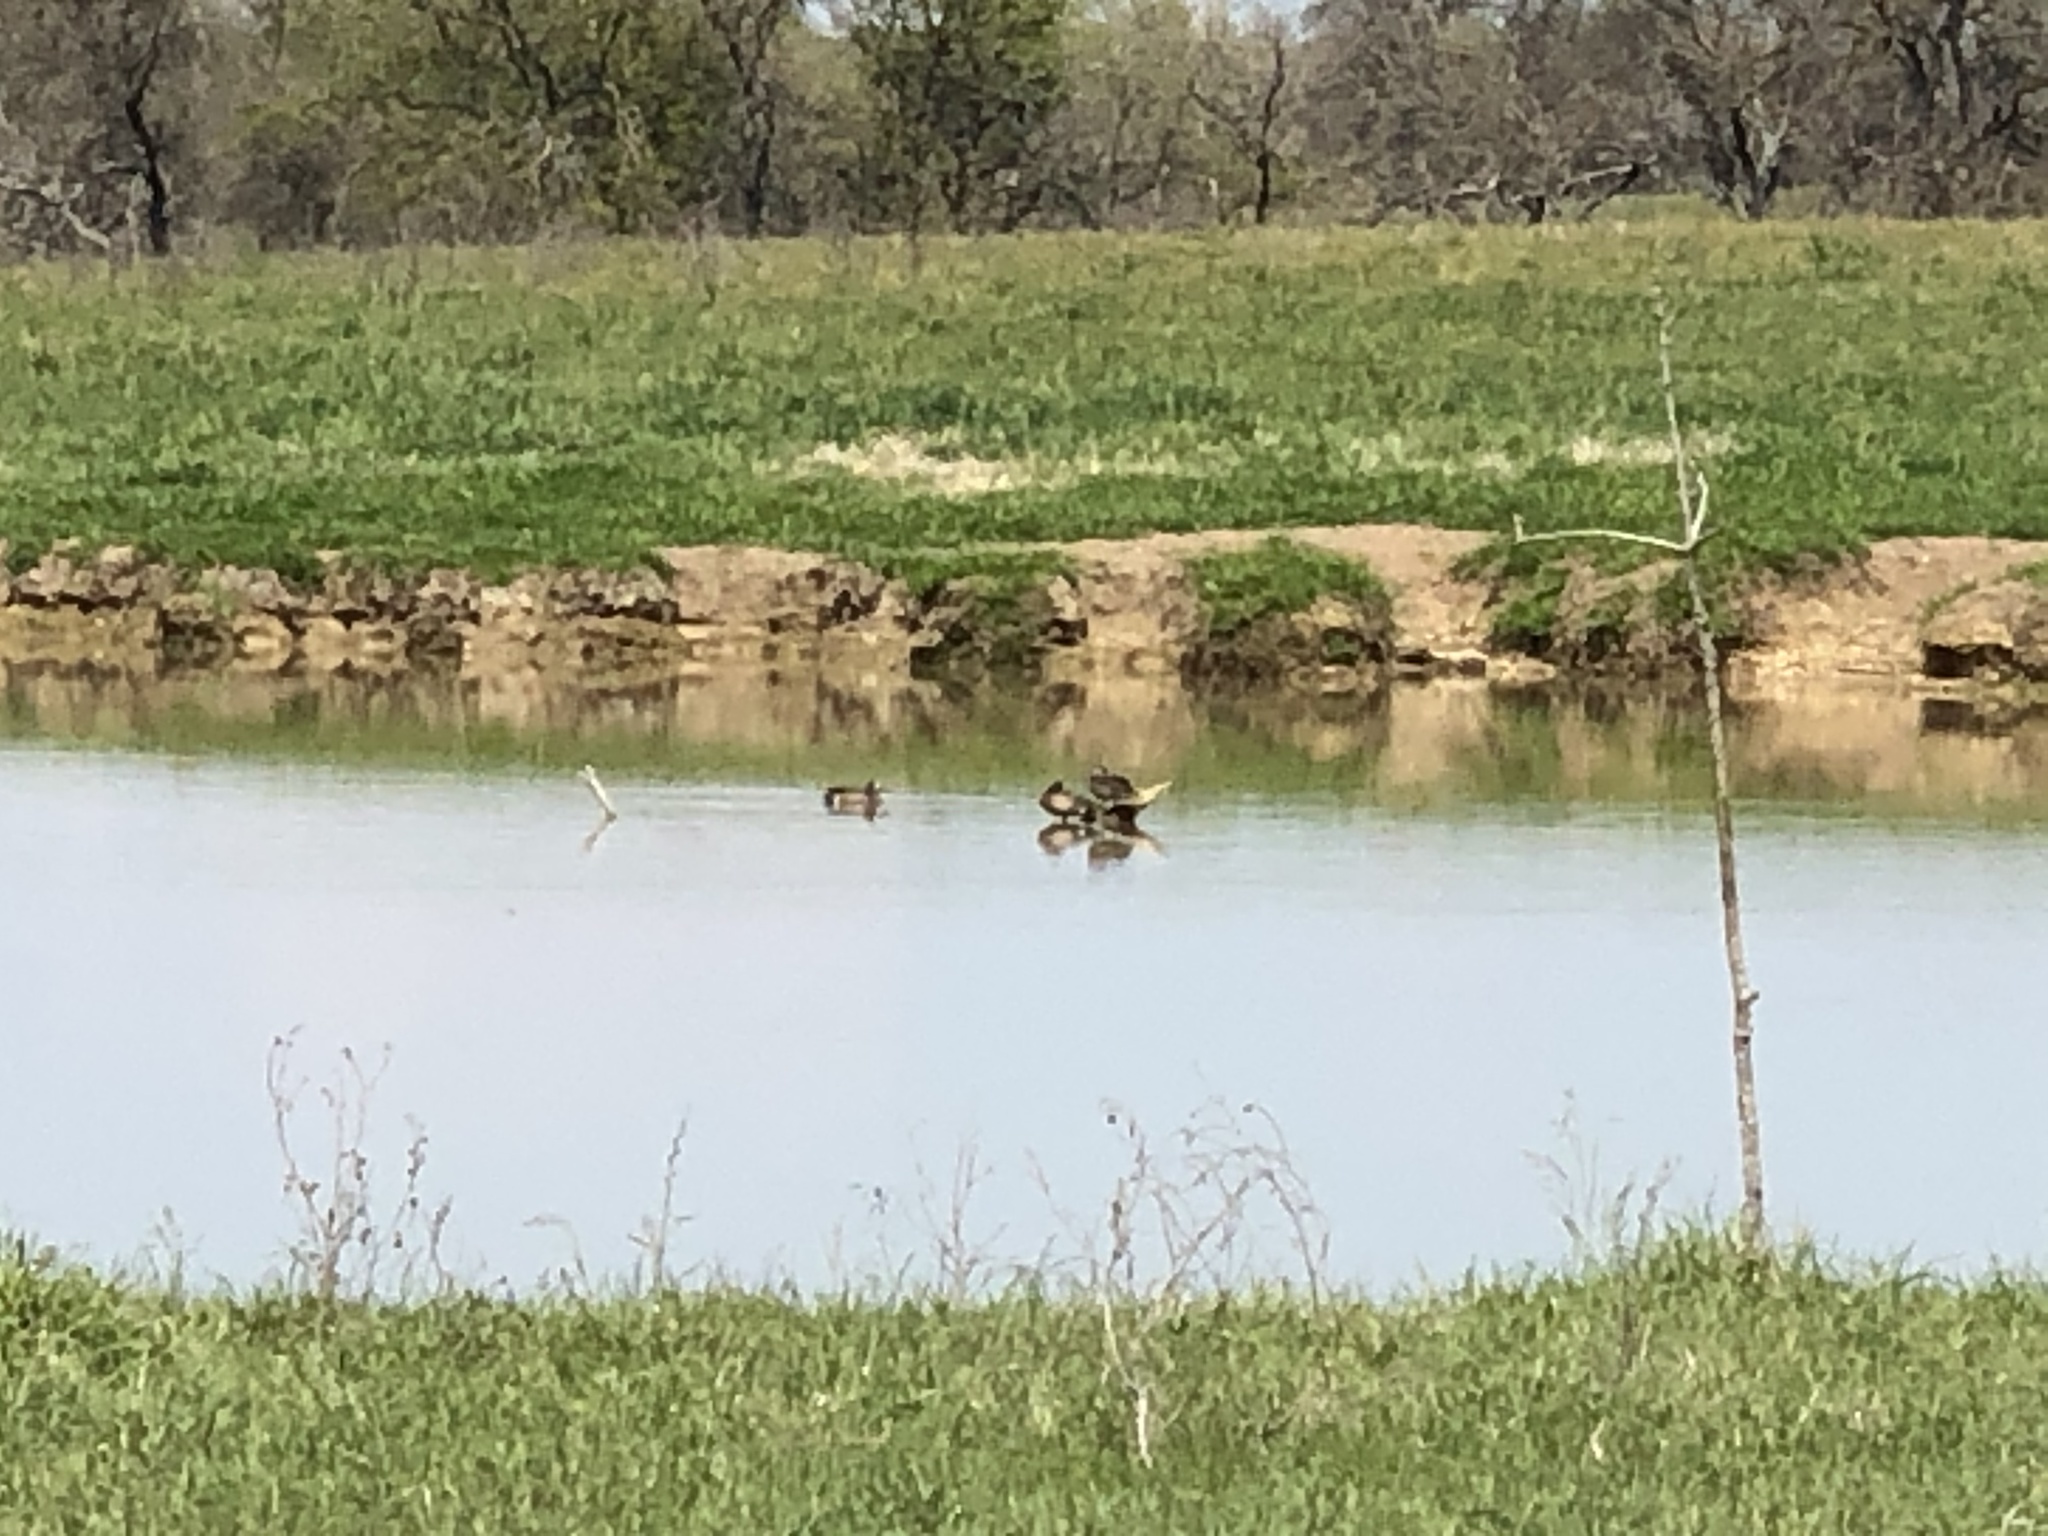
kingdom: Animalia
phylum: Chordata
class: Aves
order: Anseriformes
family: Anatidae
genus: Spatula
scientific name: Spatula discors
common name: Blue-winged teal
